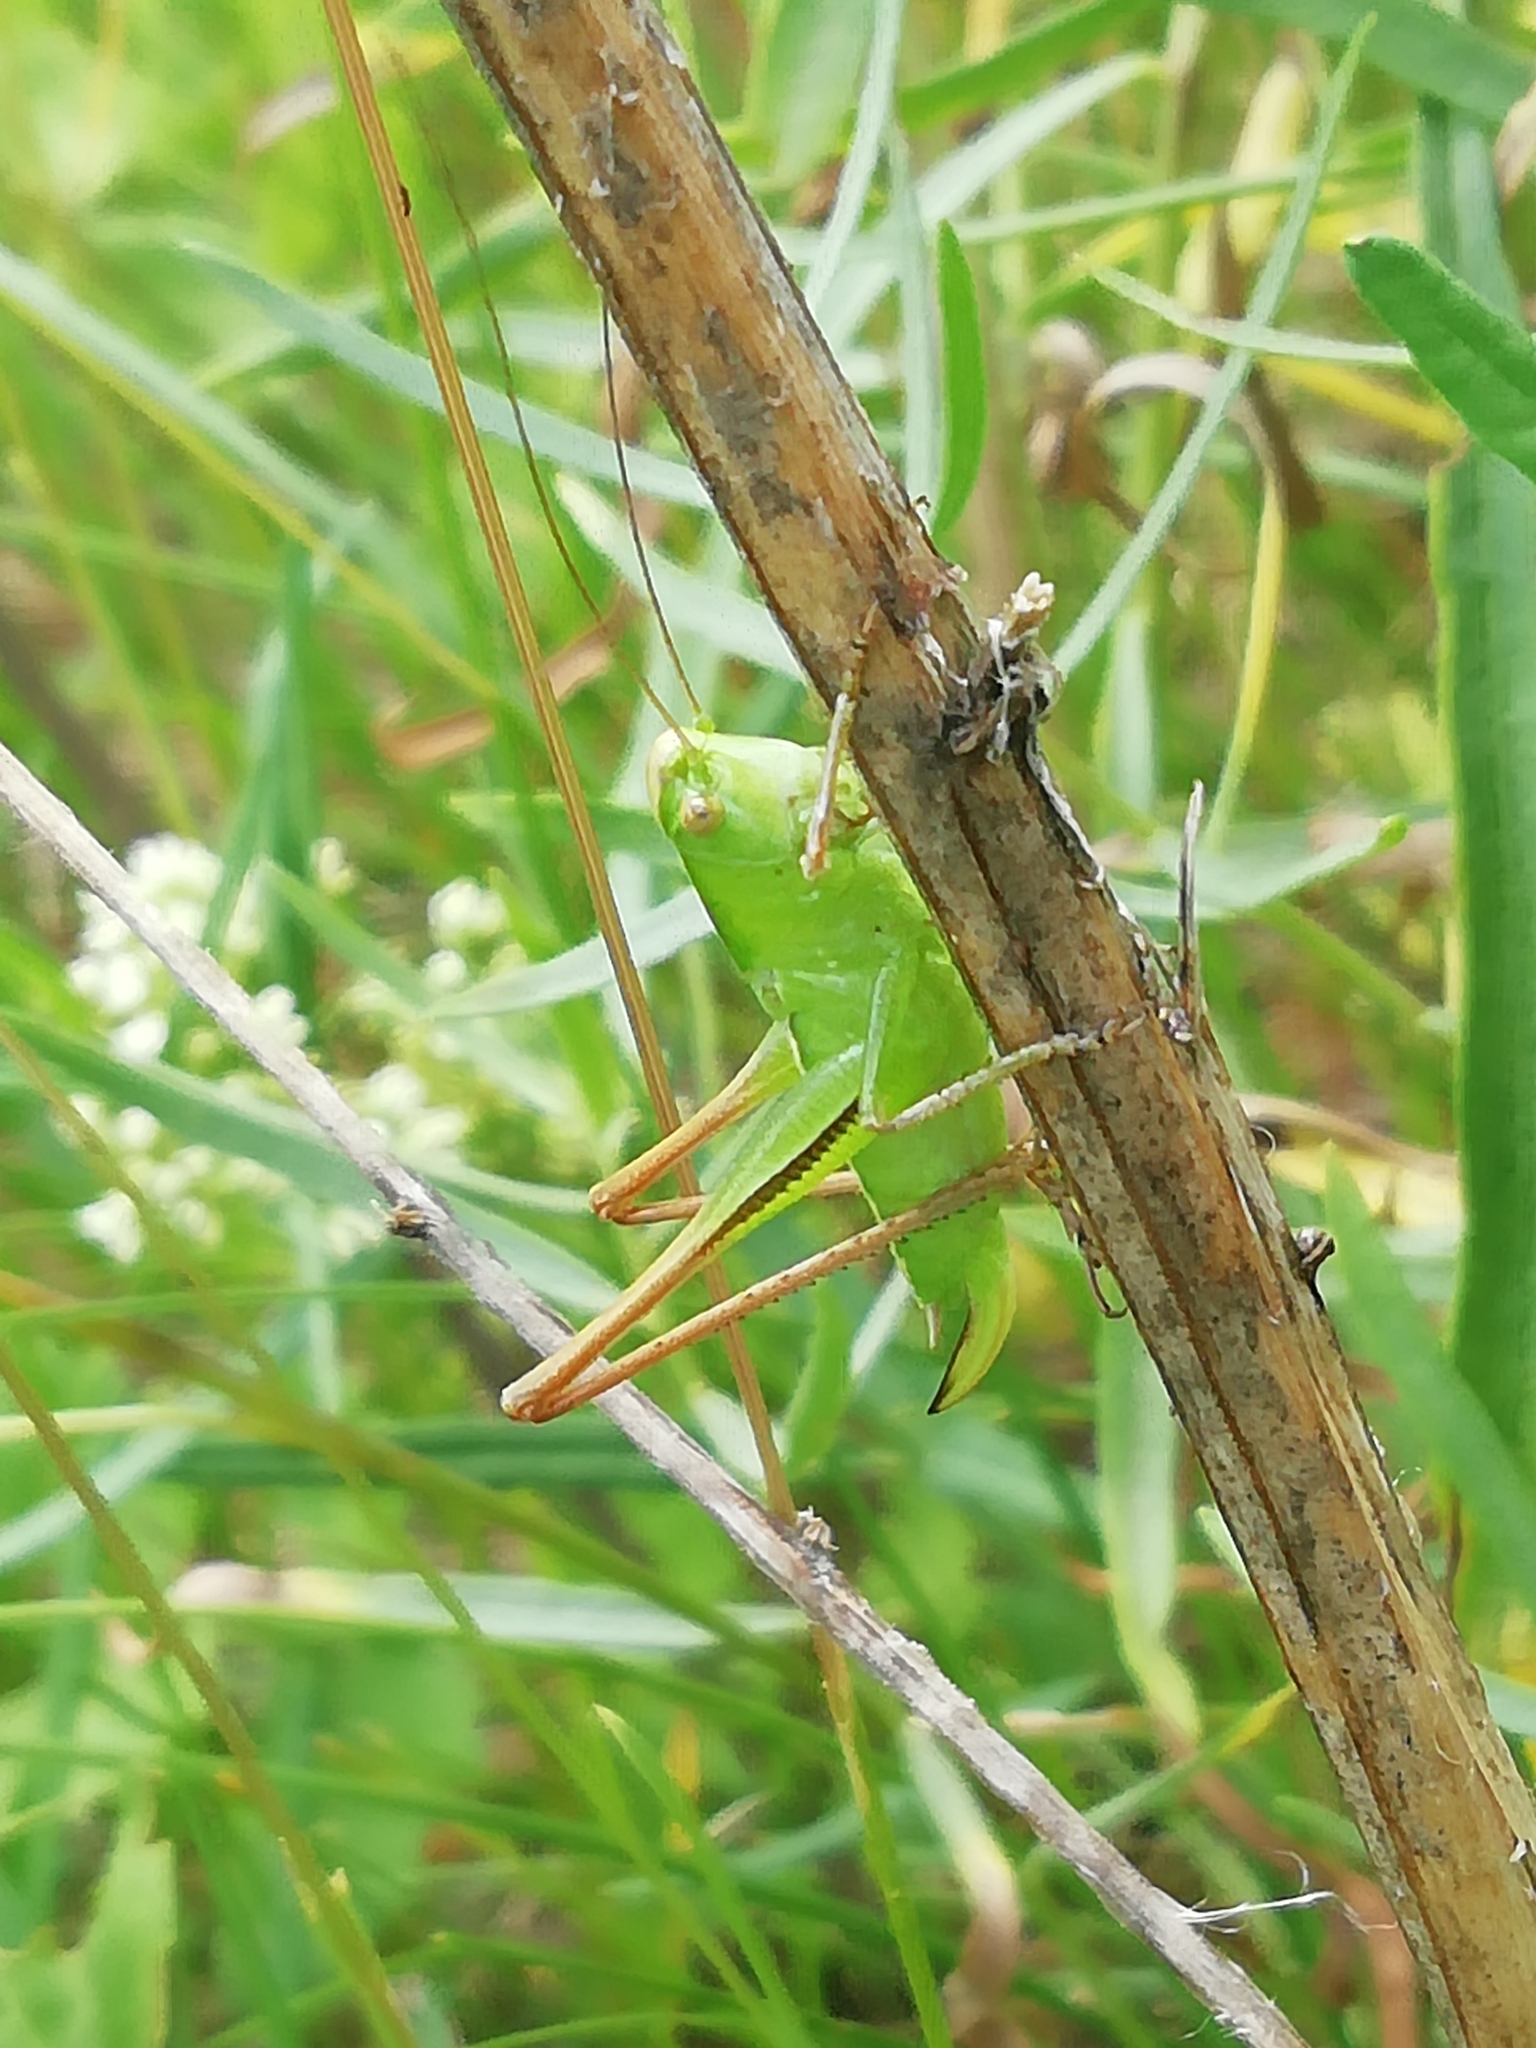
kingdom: Animalia
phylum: Arthropoda
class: Insecta
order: Orthoptera
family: Tettigoniidae
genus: Bicolorana
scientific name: Bicolorana bicolor
